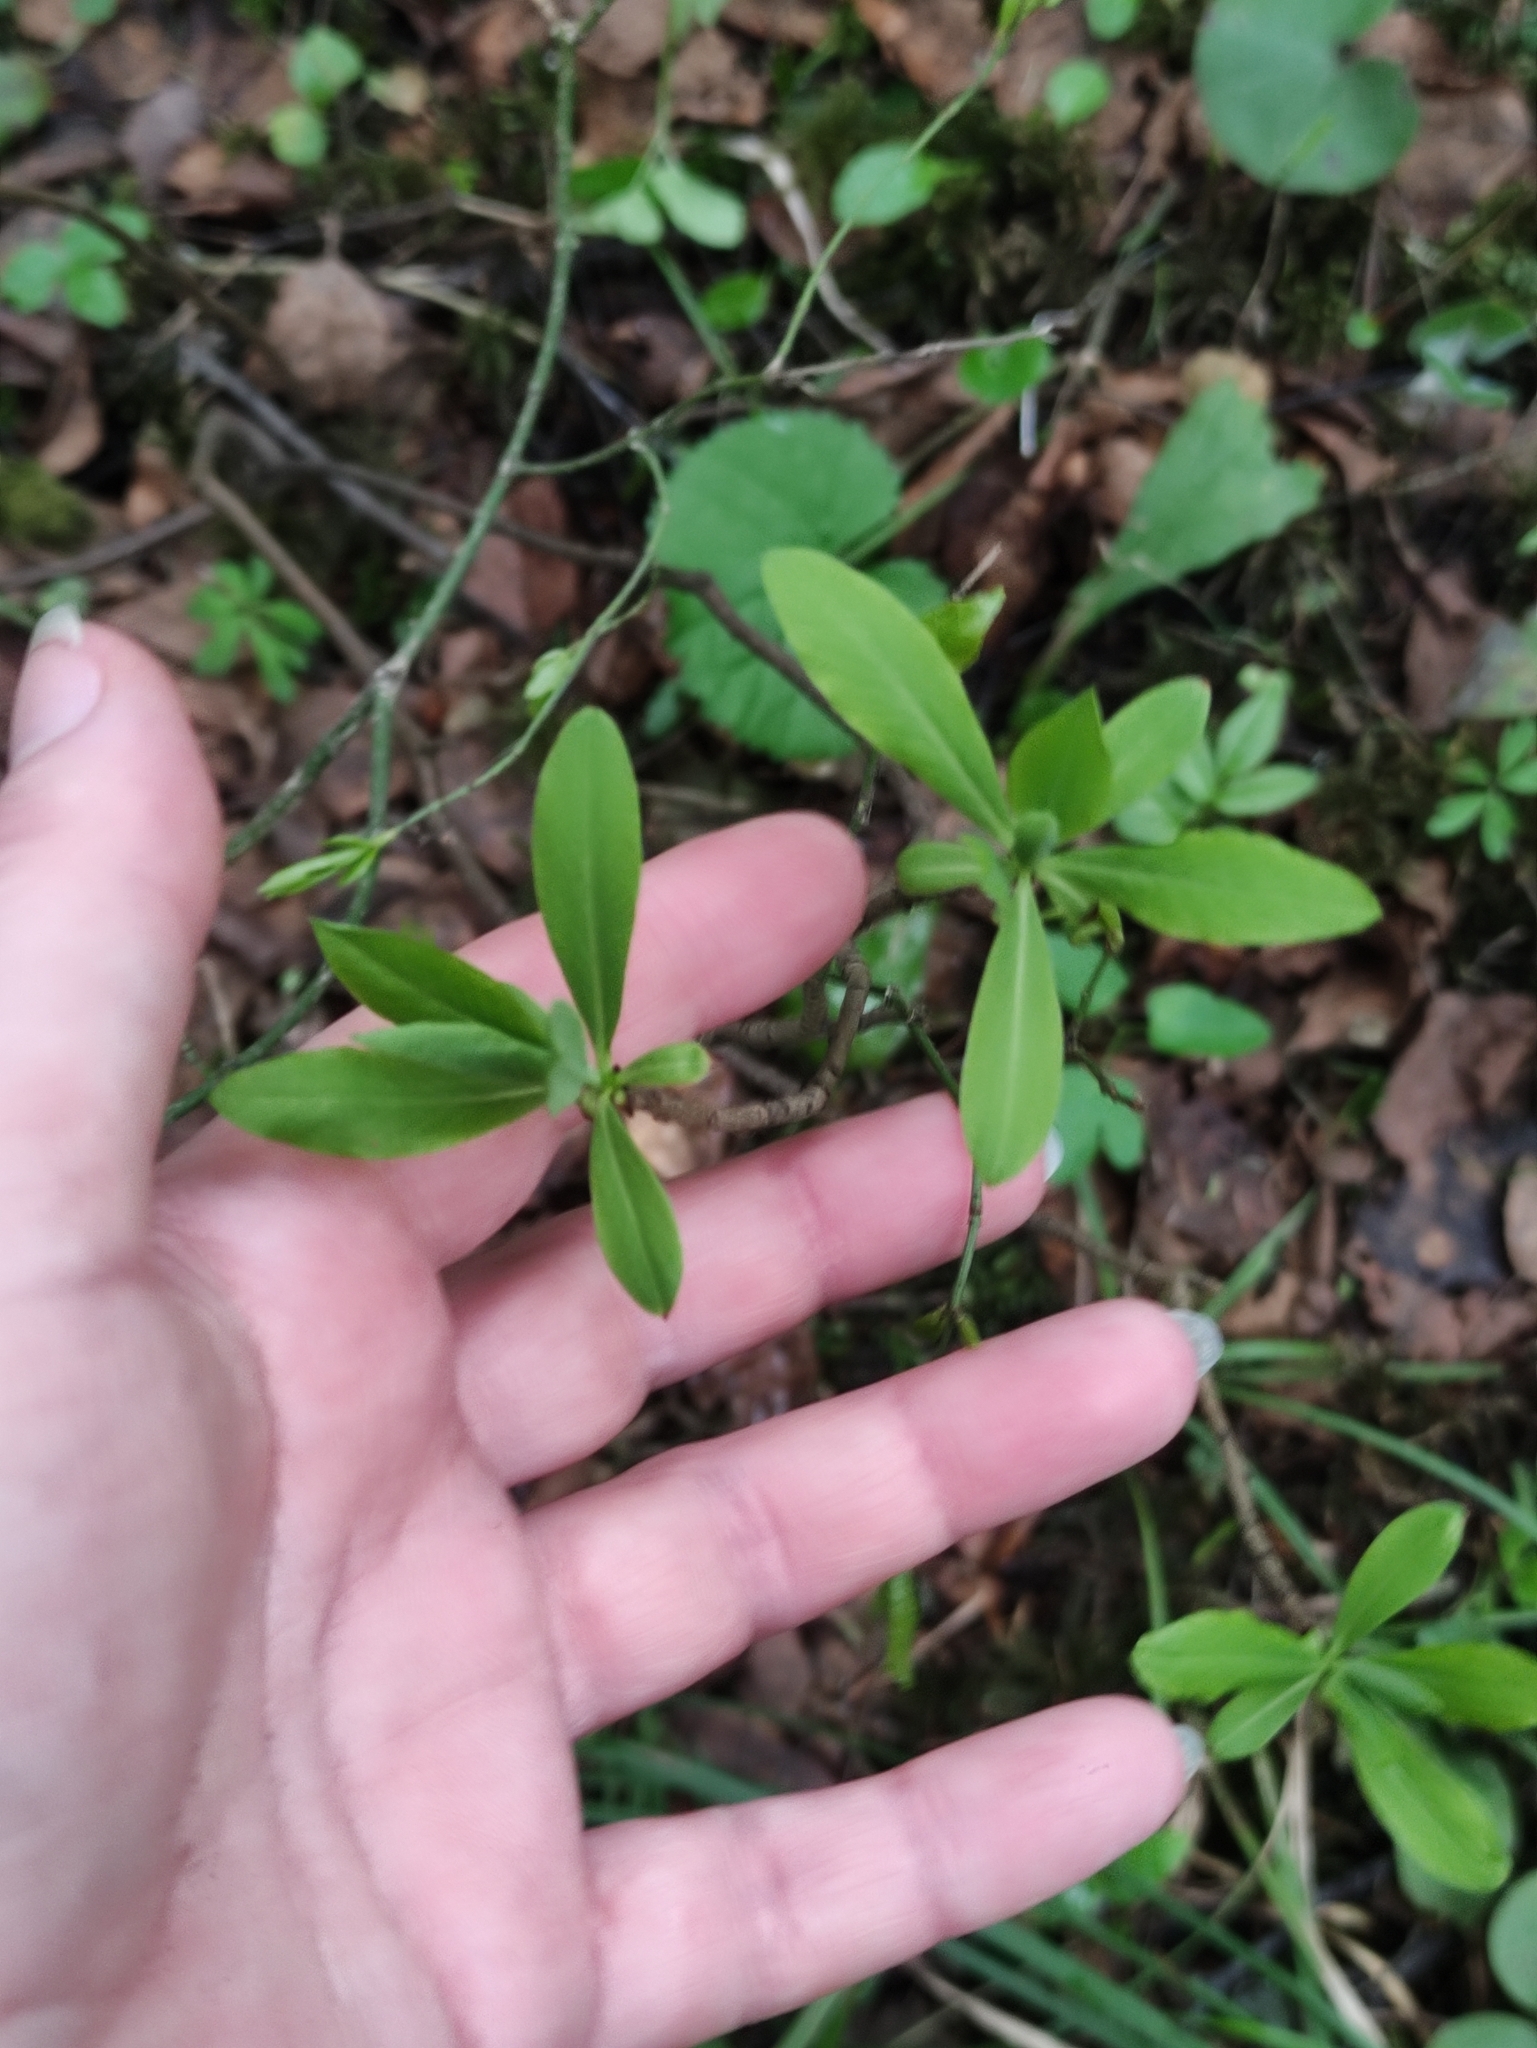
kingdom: Plantae
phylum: Tracheophyta
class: Magnoliopsida
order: Malvales
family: Thymelaeaceae
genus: Daphne
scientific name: Daphne mezereum
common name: Mezereon
